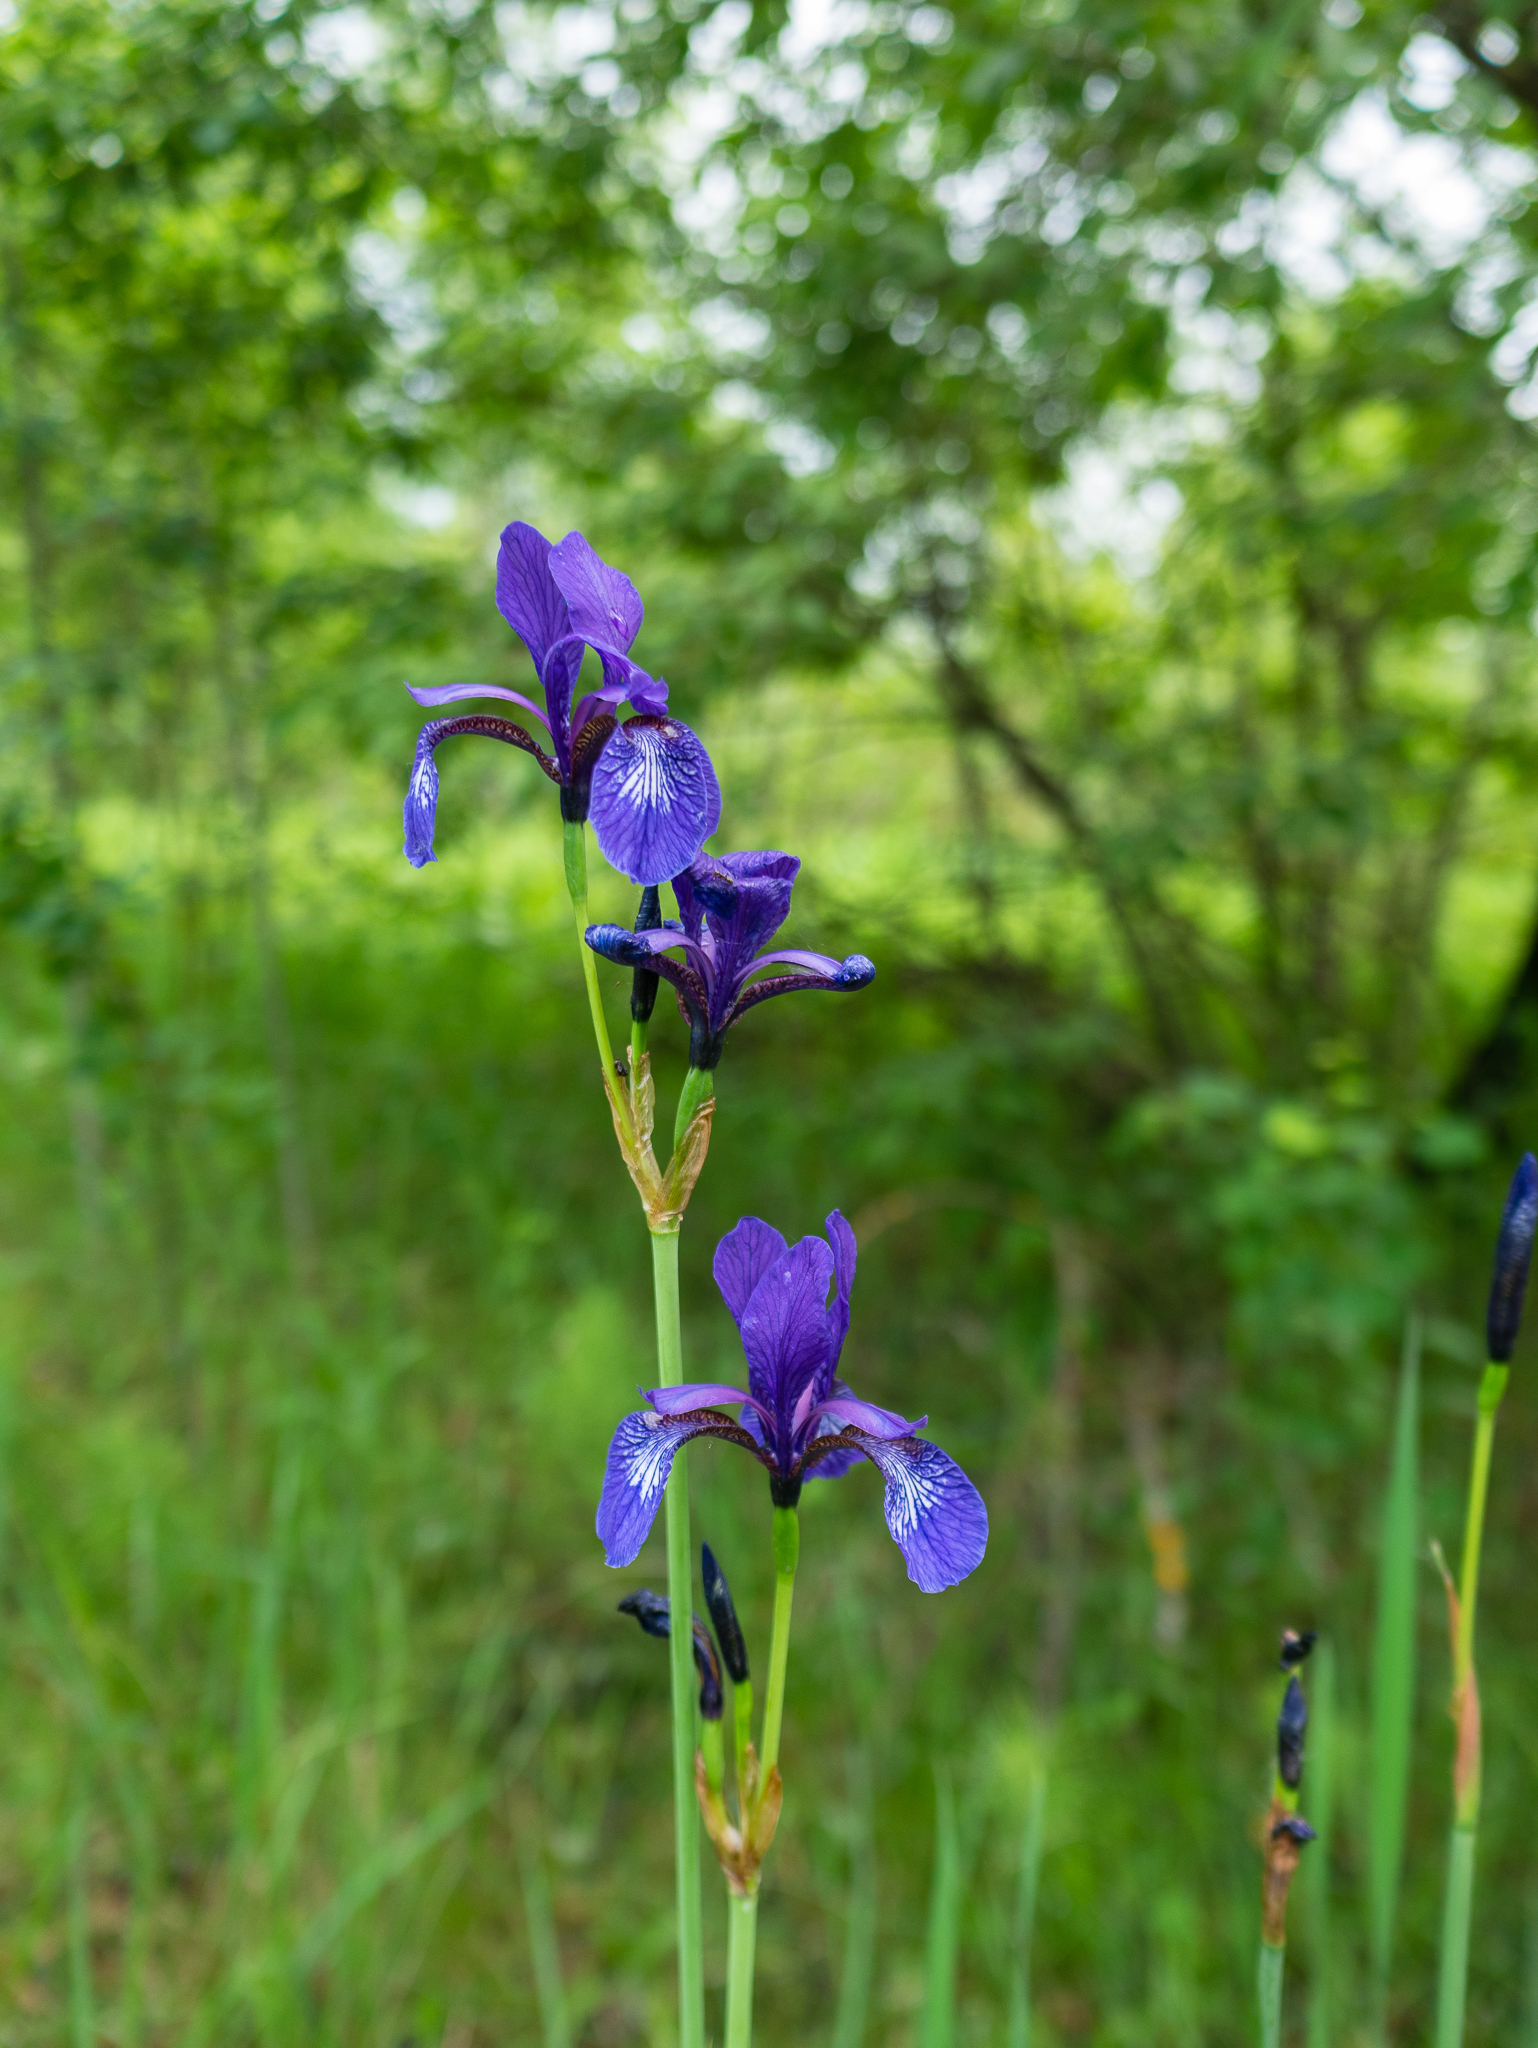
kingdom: Plantae
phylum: Tracheophyta
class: Liliopsida
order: Asparagales
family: Iridaceae
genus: Iris
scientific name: Iris sibirica
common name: Siberian iris
